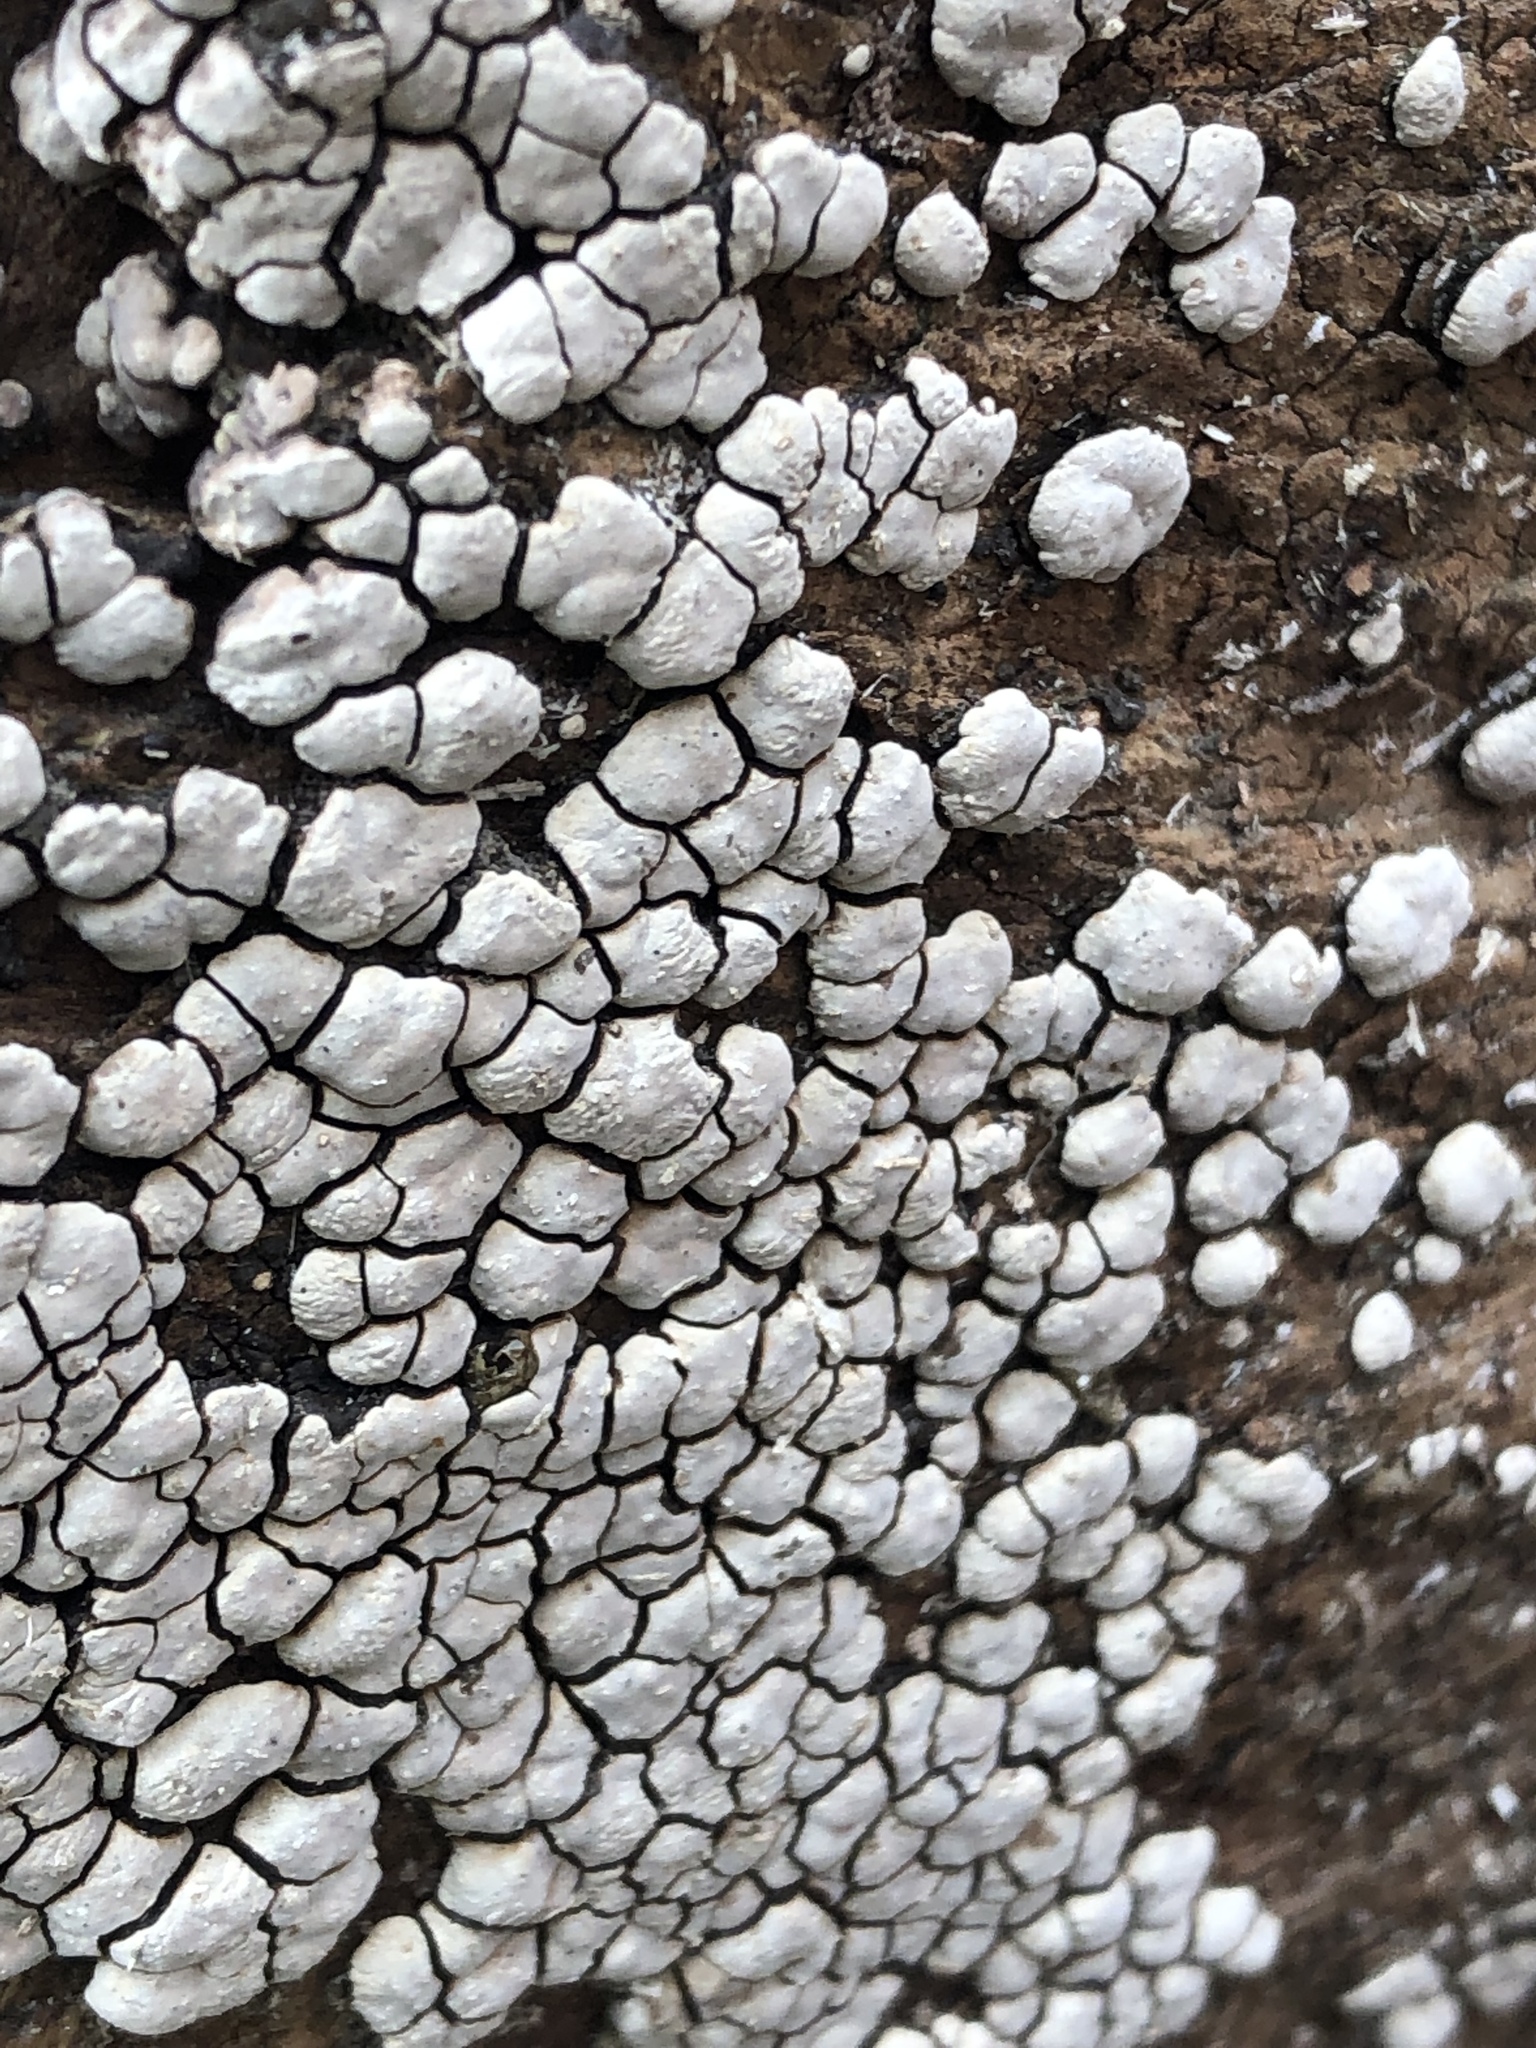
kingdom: Fungi
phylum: Basidiomycota
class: Agaricomycetes
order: Russulales
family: Stereaceae
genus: Xylobolus
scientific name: Xylobolus frustulatus
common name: Ceramic parchment
